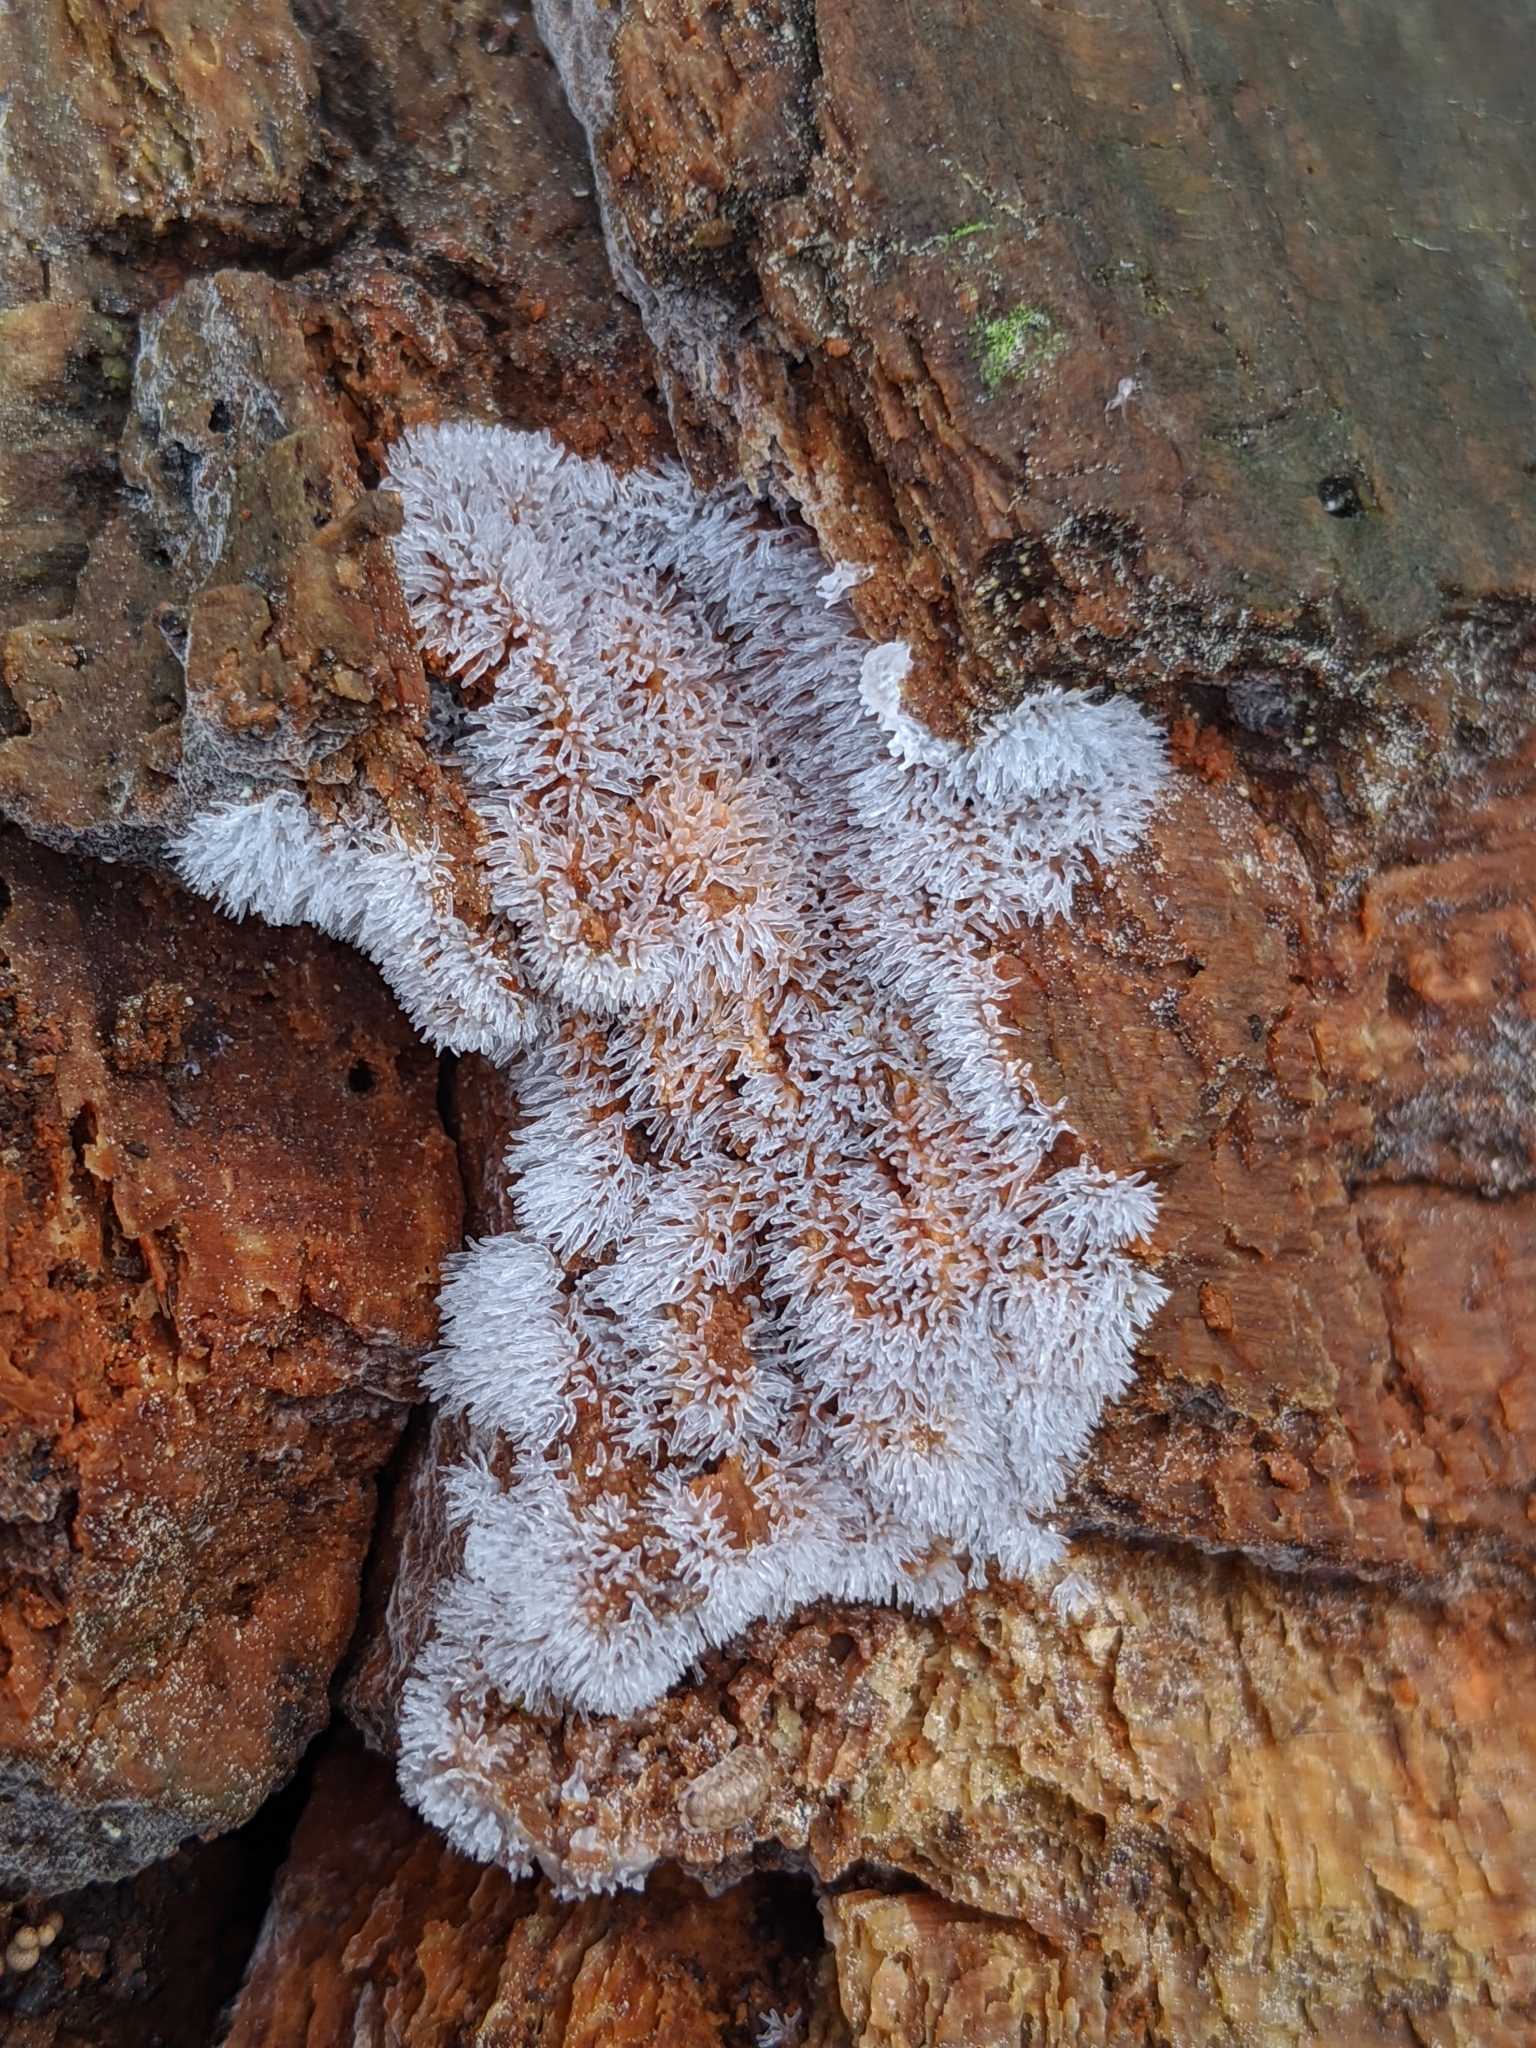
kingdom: Protozoa
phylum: Mycetozoa
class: Protosteliomycetes
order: Ceratiomyxales
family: Ceratiomyxaceae
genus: Ceratiomyxa
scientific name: Ceratiomyxa fruticulosa
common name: Honeycomb coral slime mold
